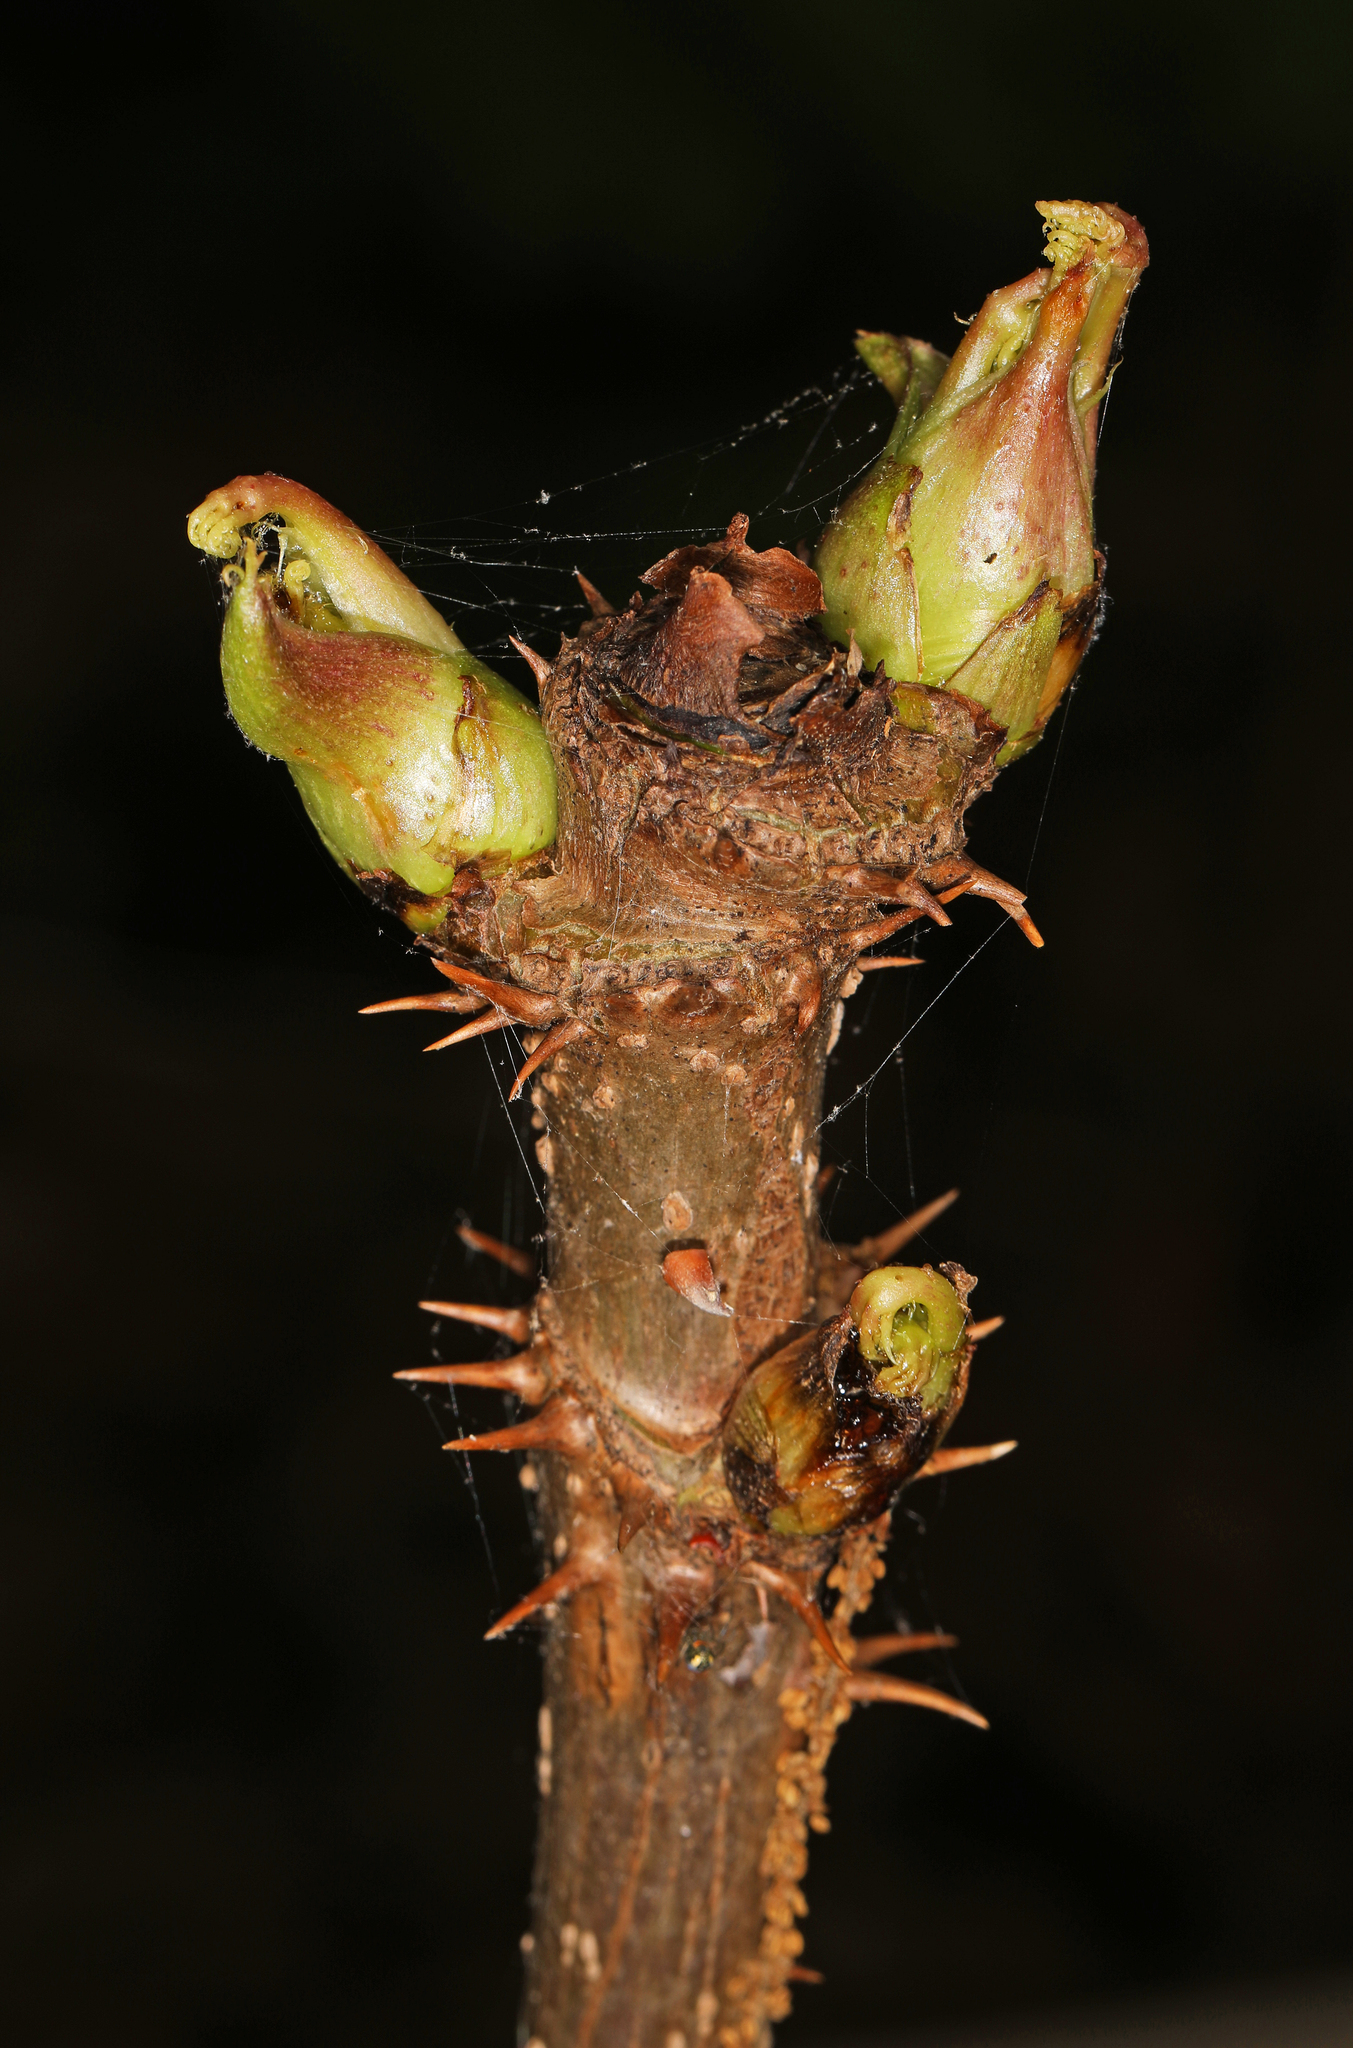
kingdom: Plantae
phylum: Tracheophyta
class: Magnoliopsida
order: Apiales
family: Araliaceae
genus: Aralia
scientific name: Aralia spinosa
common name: Hercules'-club
